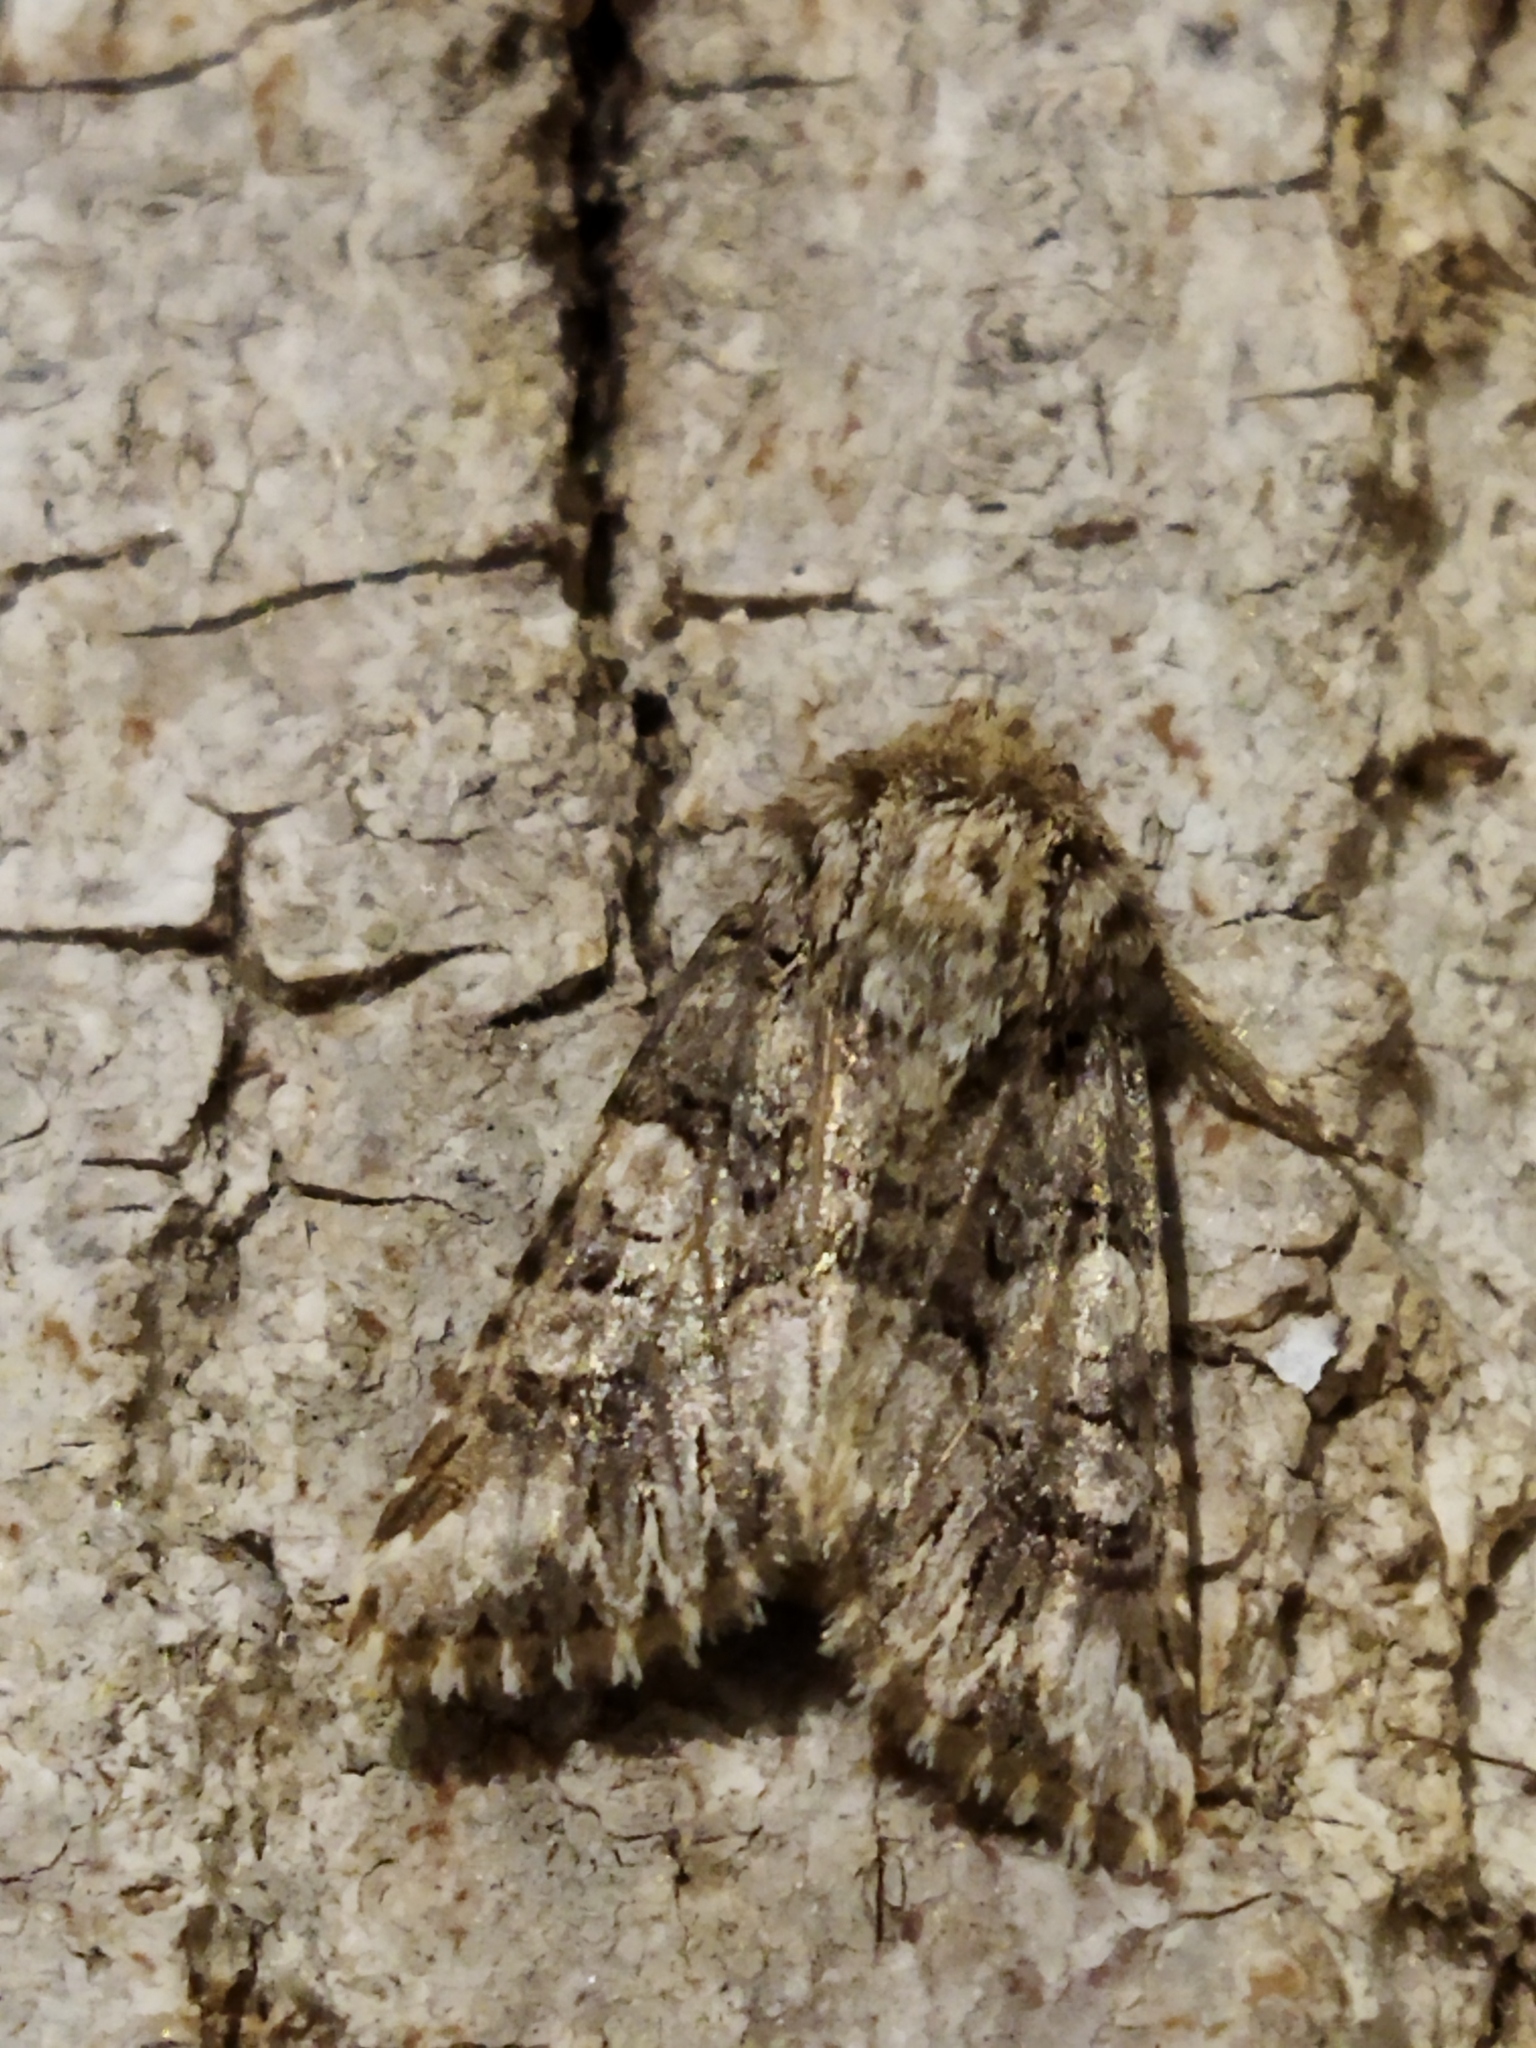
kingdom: Animalia
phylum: Arthropoda
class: Insecta
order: Lepidoptera
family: Noctuidae
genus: Hadena
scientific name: Hadena silenes
